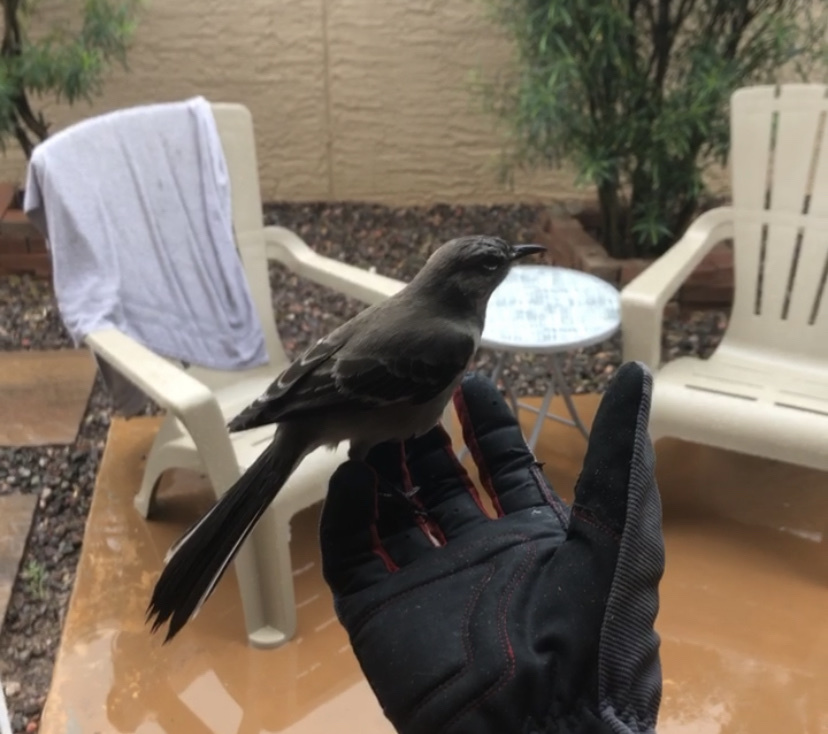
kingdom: Animalia
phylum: Chordata
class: Aves
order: Passeriformes
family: Mimidae
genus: Mimus
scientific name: Mimus polyglottos
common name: Northern mockingbird
